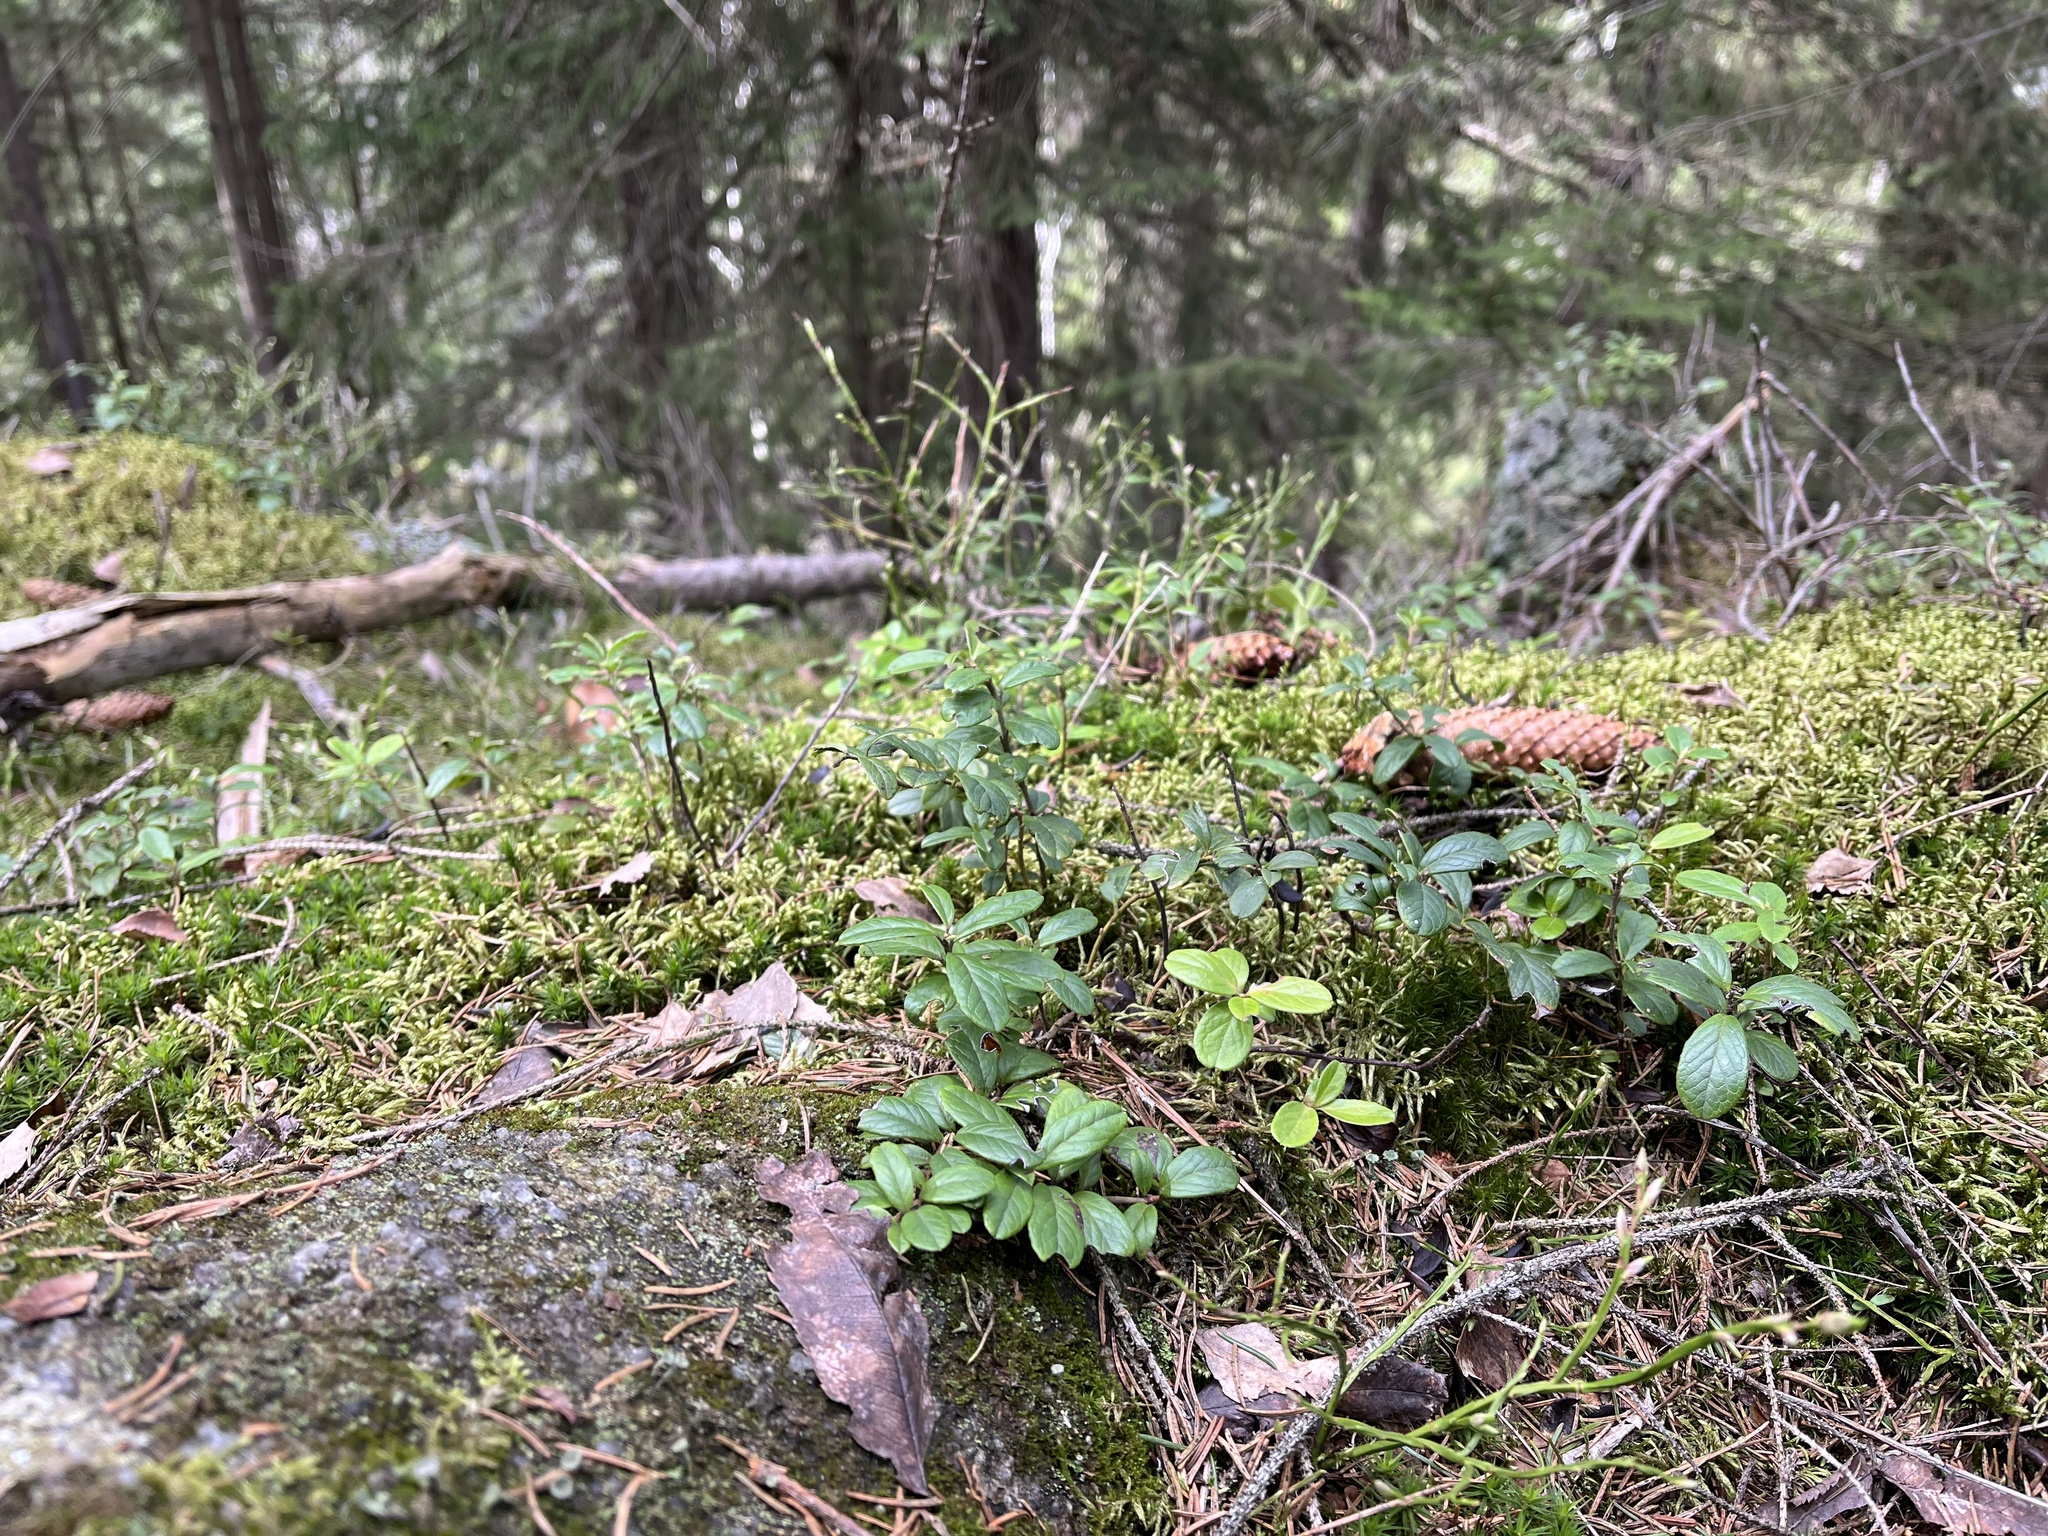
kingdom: Plantae
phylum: Tracheophyta
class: Magnoliopsida
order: Ericales
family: Ericaceae
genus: Vaccinium
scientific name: Vaccinium vitis-idaea
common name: Cowberry
